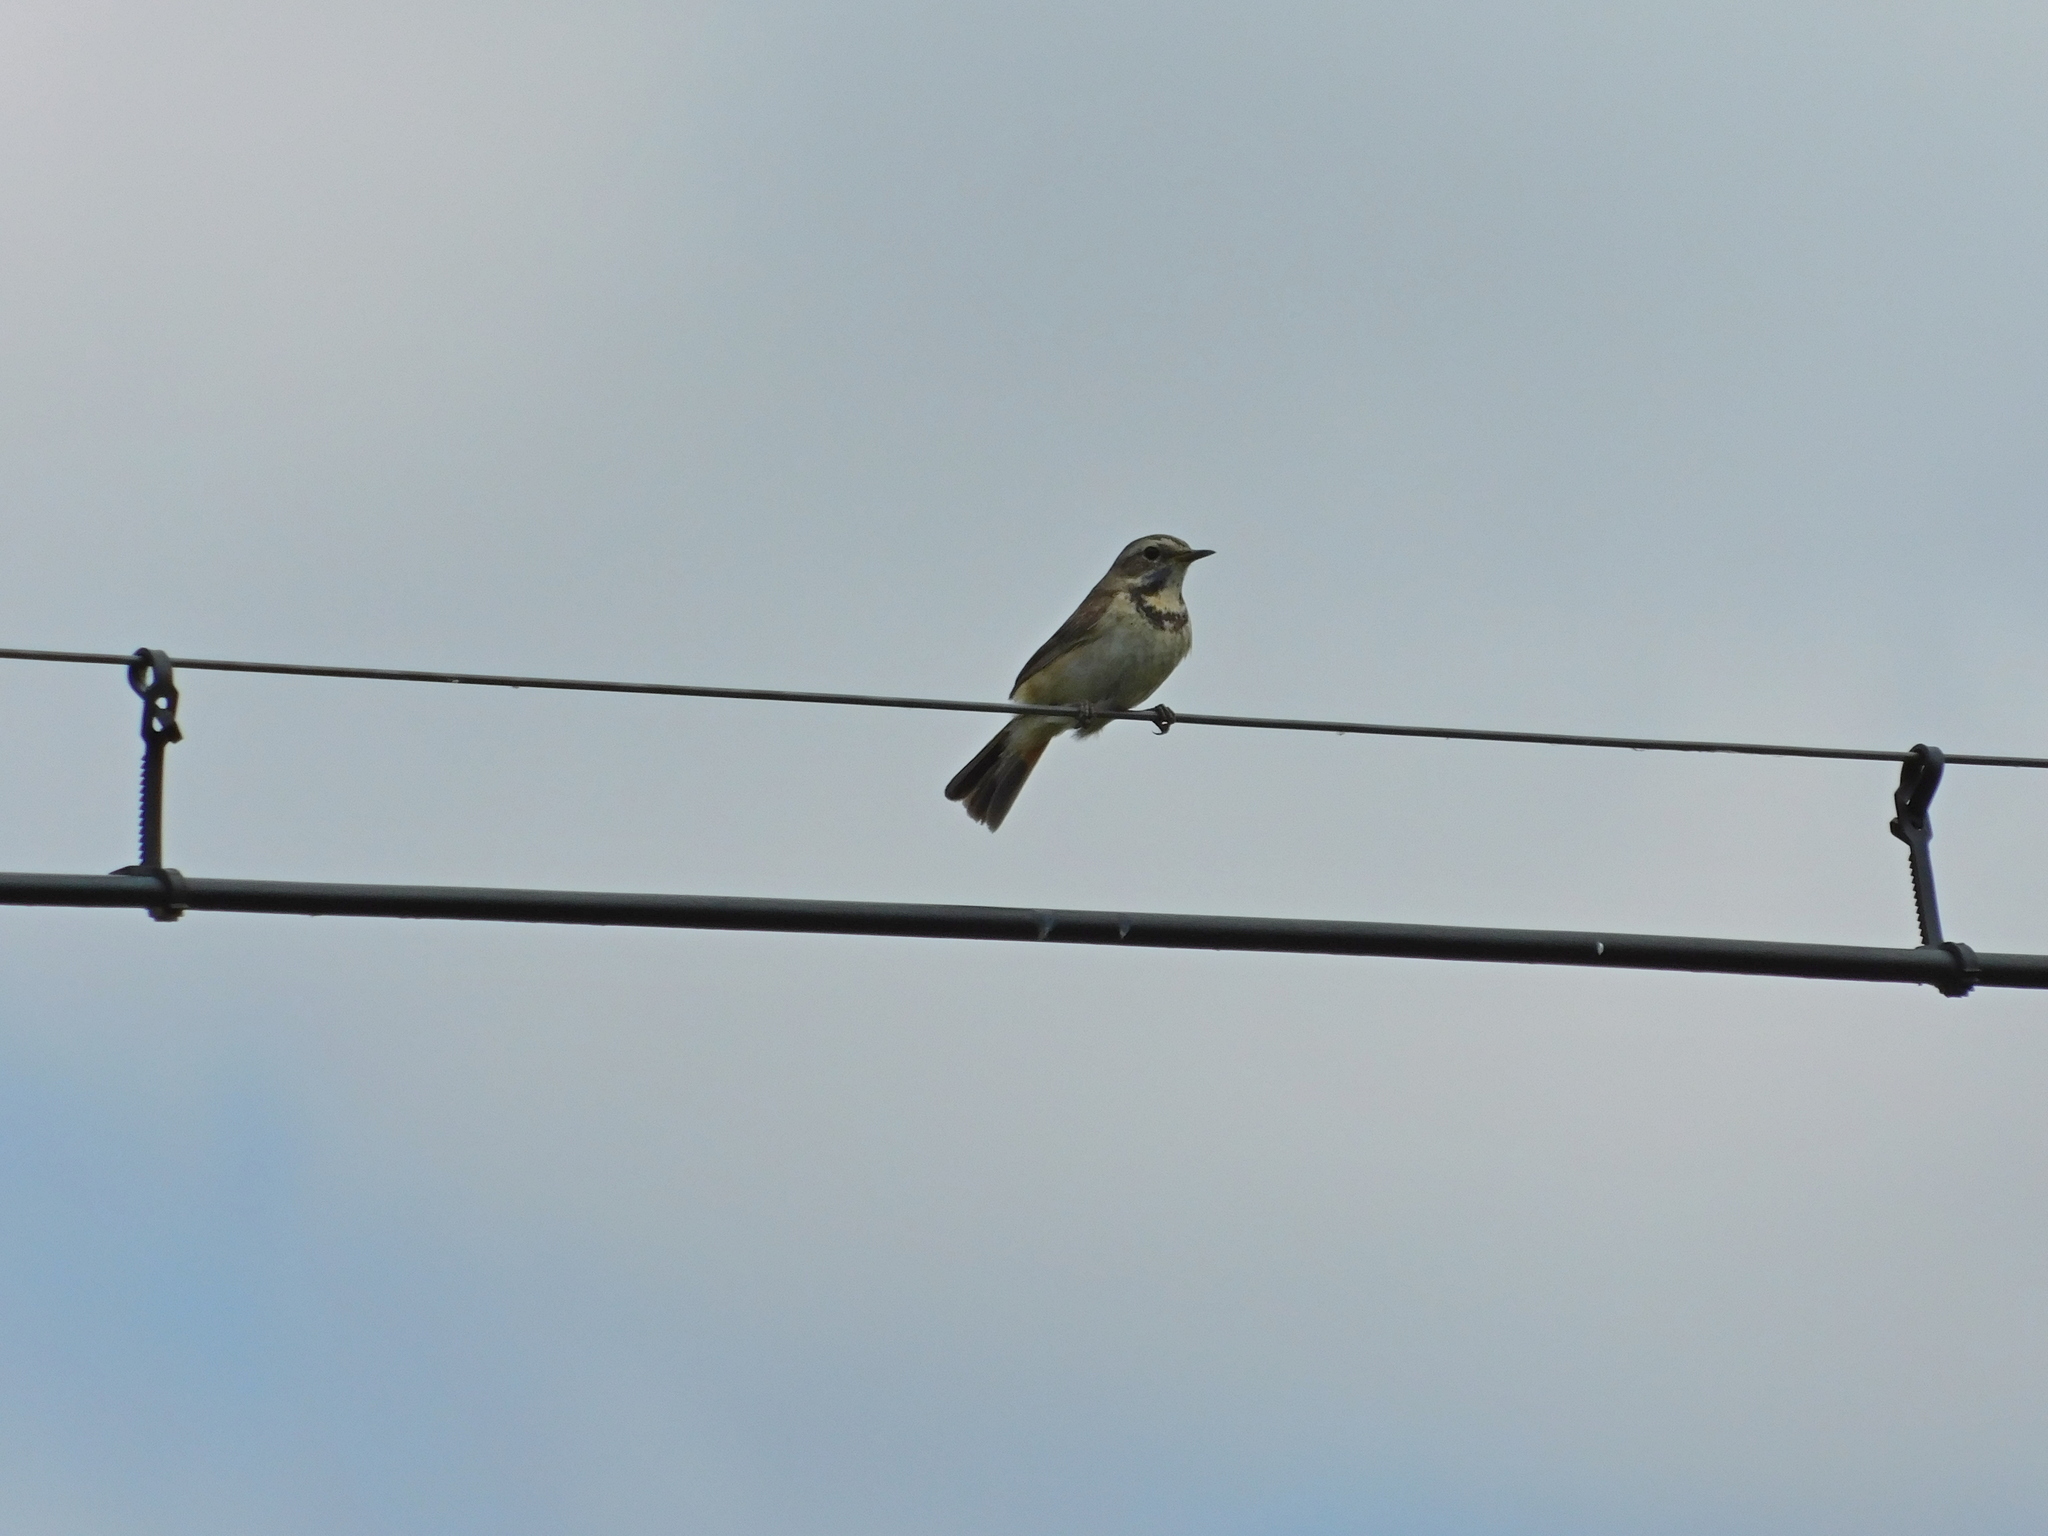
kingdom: Animalia
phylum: Chordata
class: Aves
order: Passeriformes
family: Muscicapidae
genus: Luscinia
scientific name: Luscinia svecica
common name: Bluethroat
